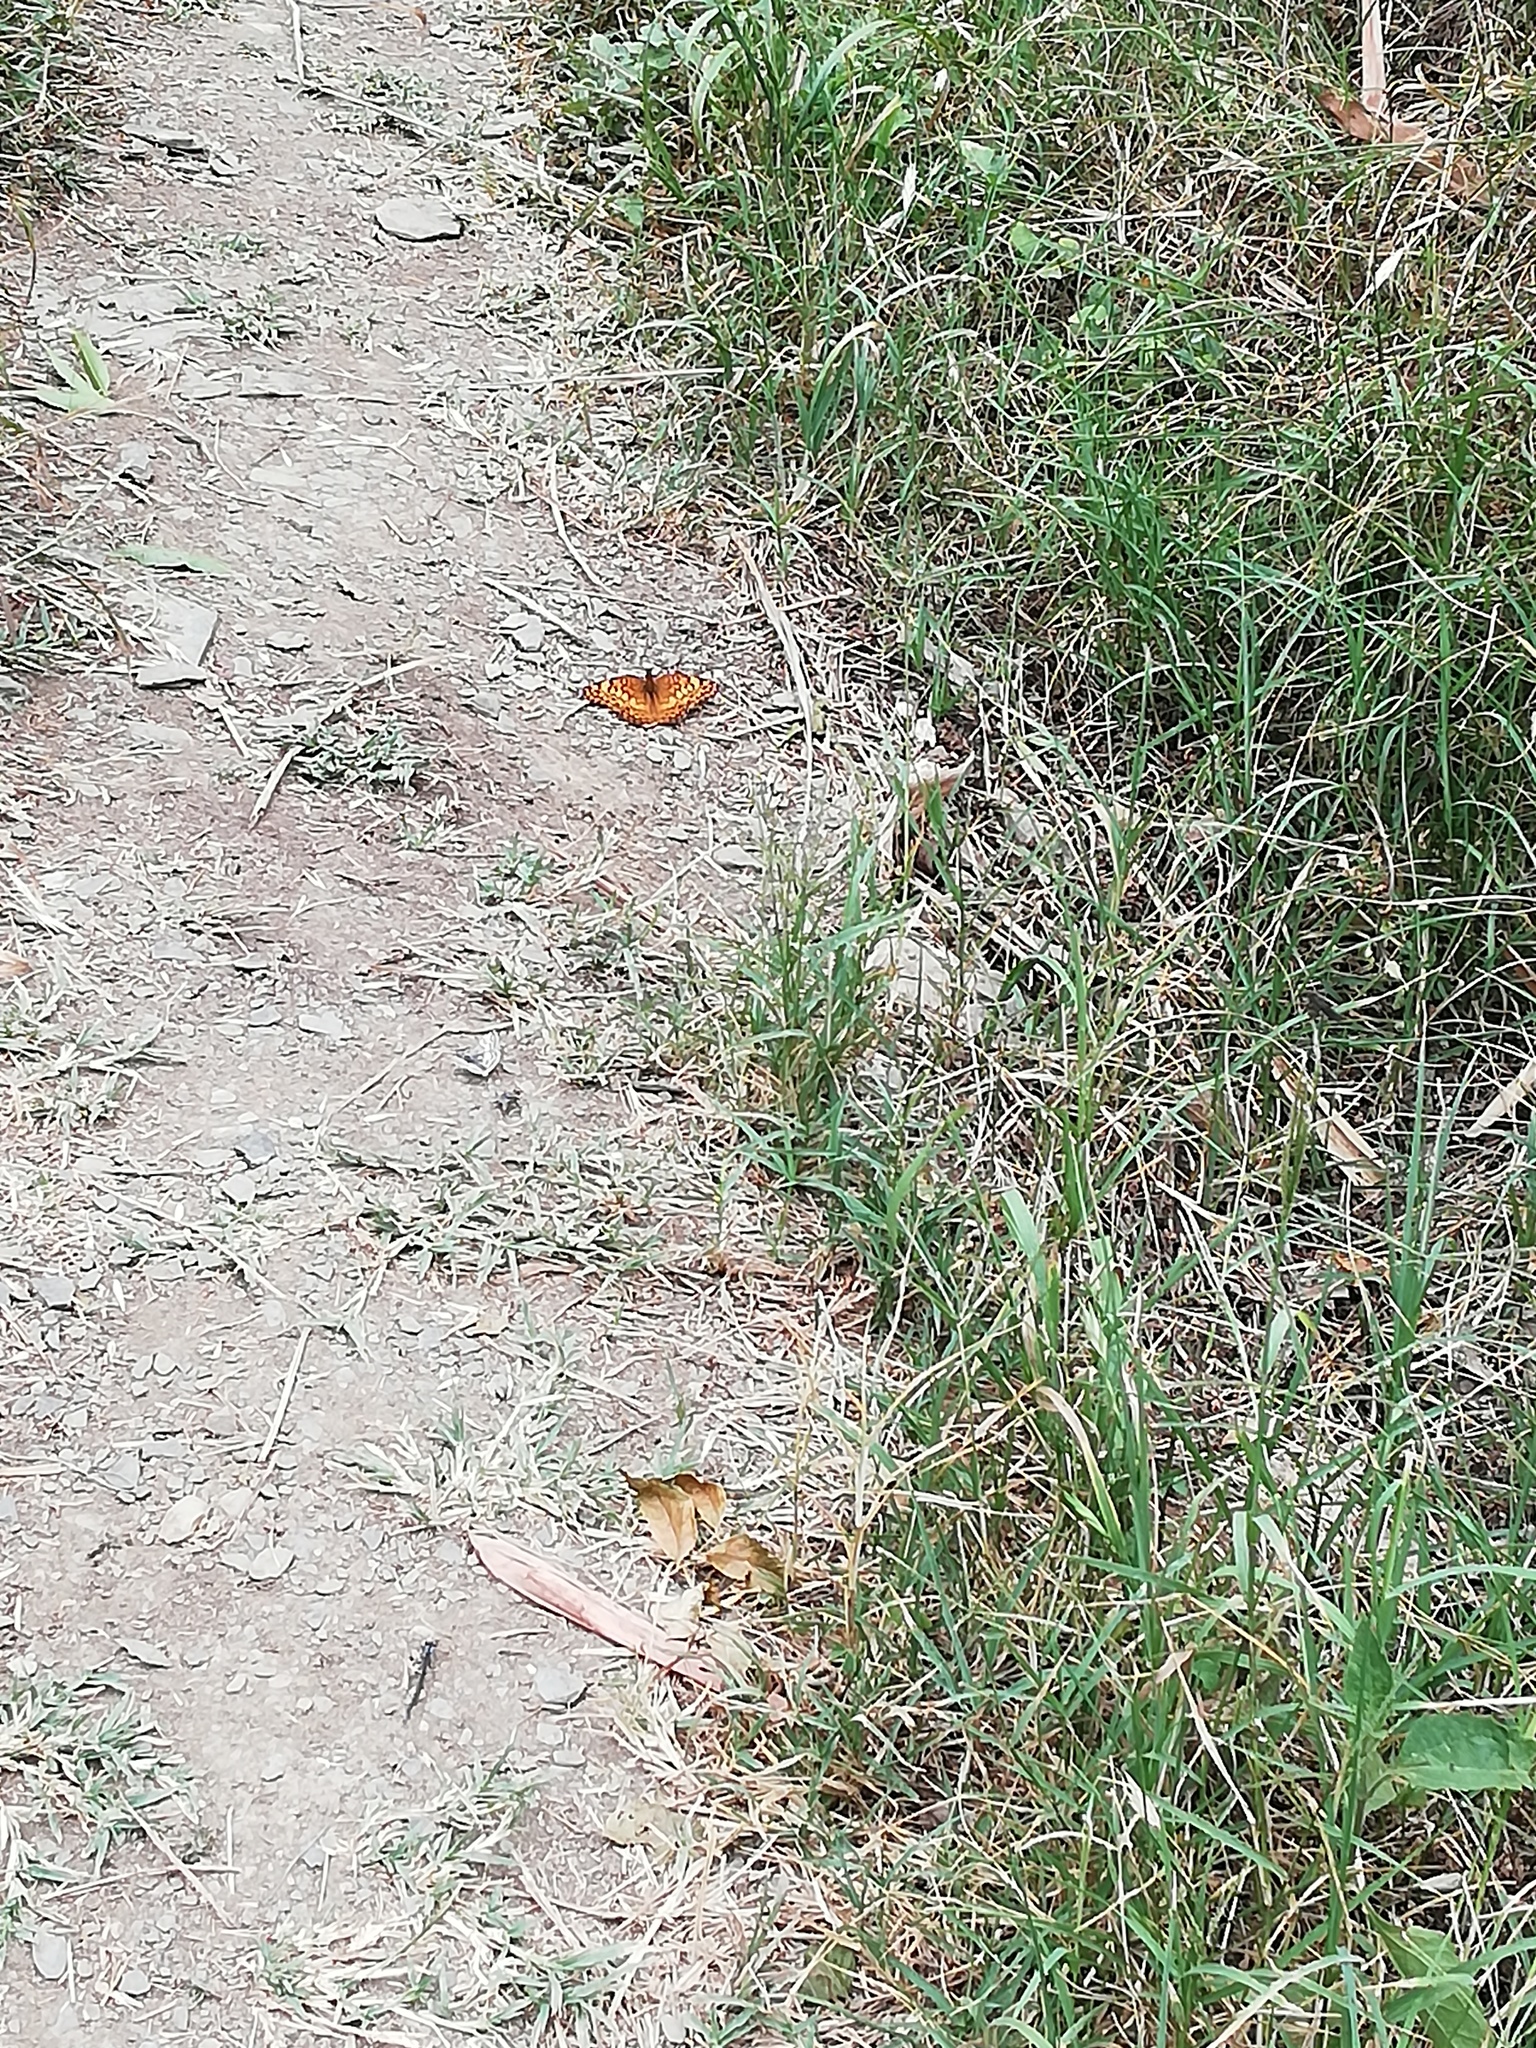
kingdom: Animalia
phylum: Arthropoda
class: Insecta
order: Lepidoptera
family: Nymphalidae
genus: Euptoieta
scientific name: Euptoieta claudia
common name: Variegated fritillary
